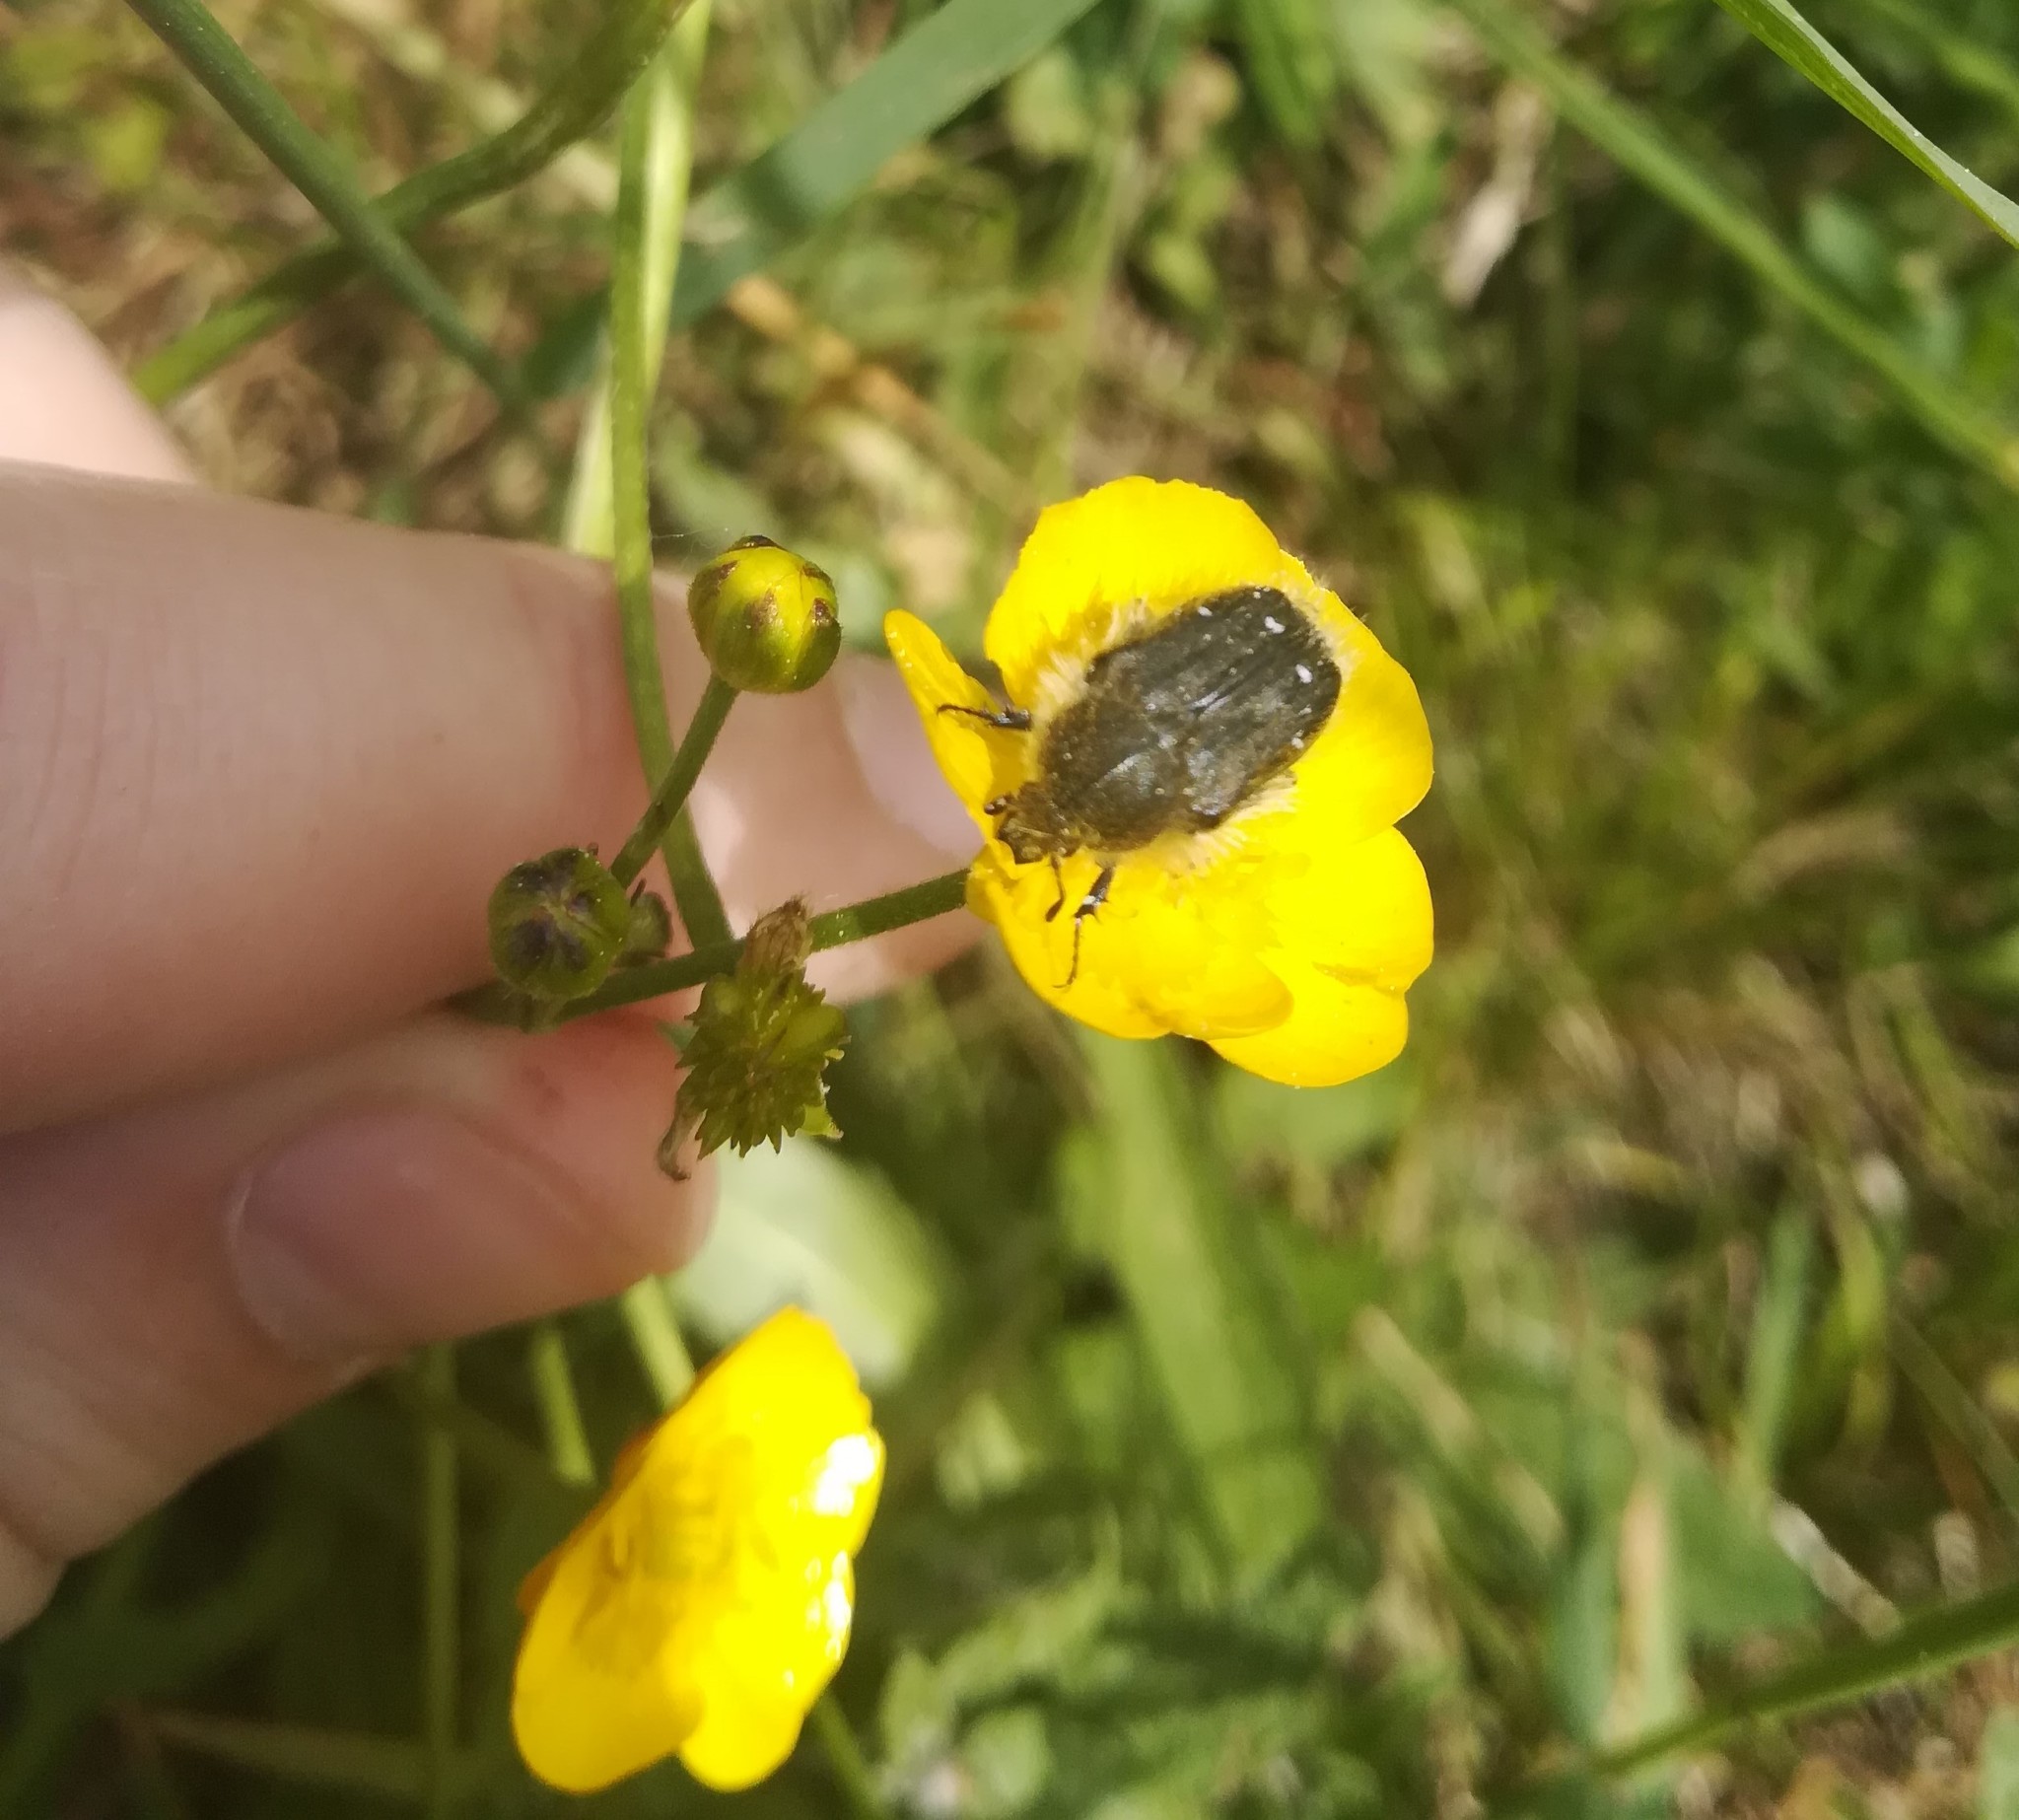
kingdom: Animalia
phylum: Arthropoda
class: Insecta
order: Coleoptera
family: Scarabaeidae
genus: Tropinota
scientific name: Tropinota hirta
